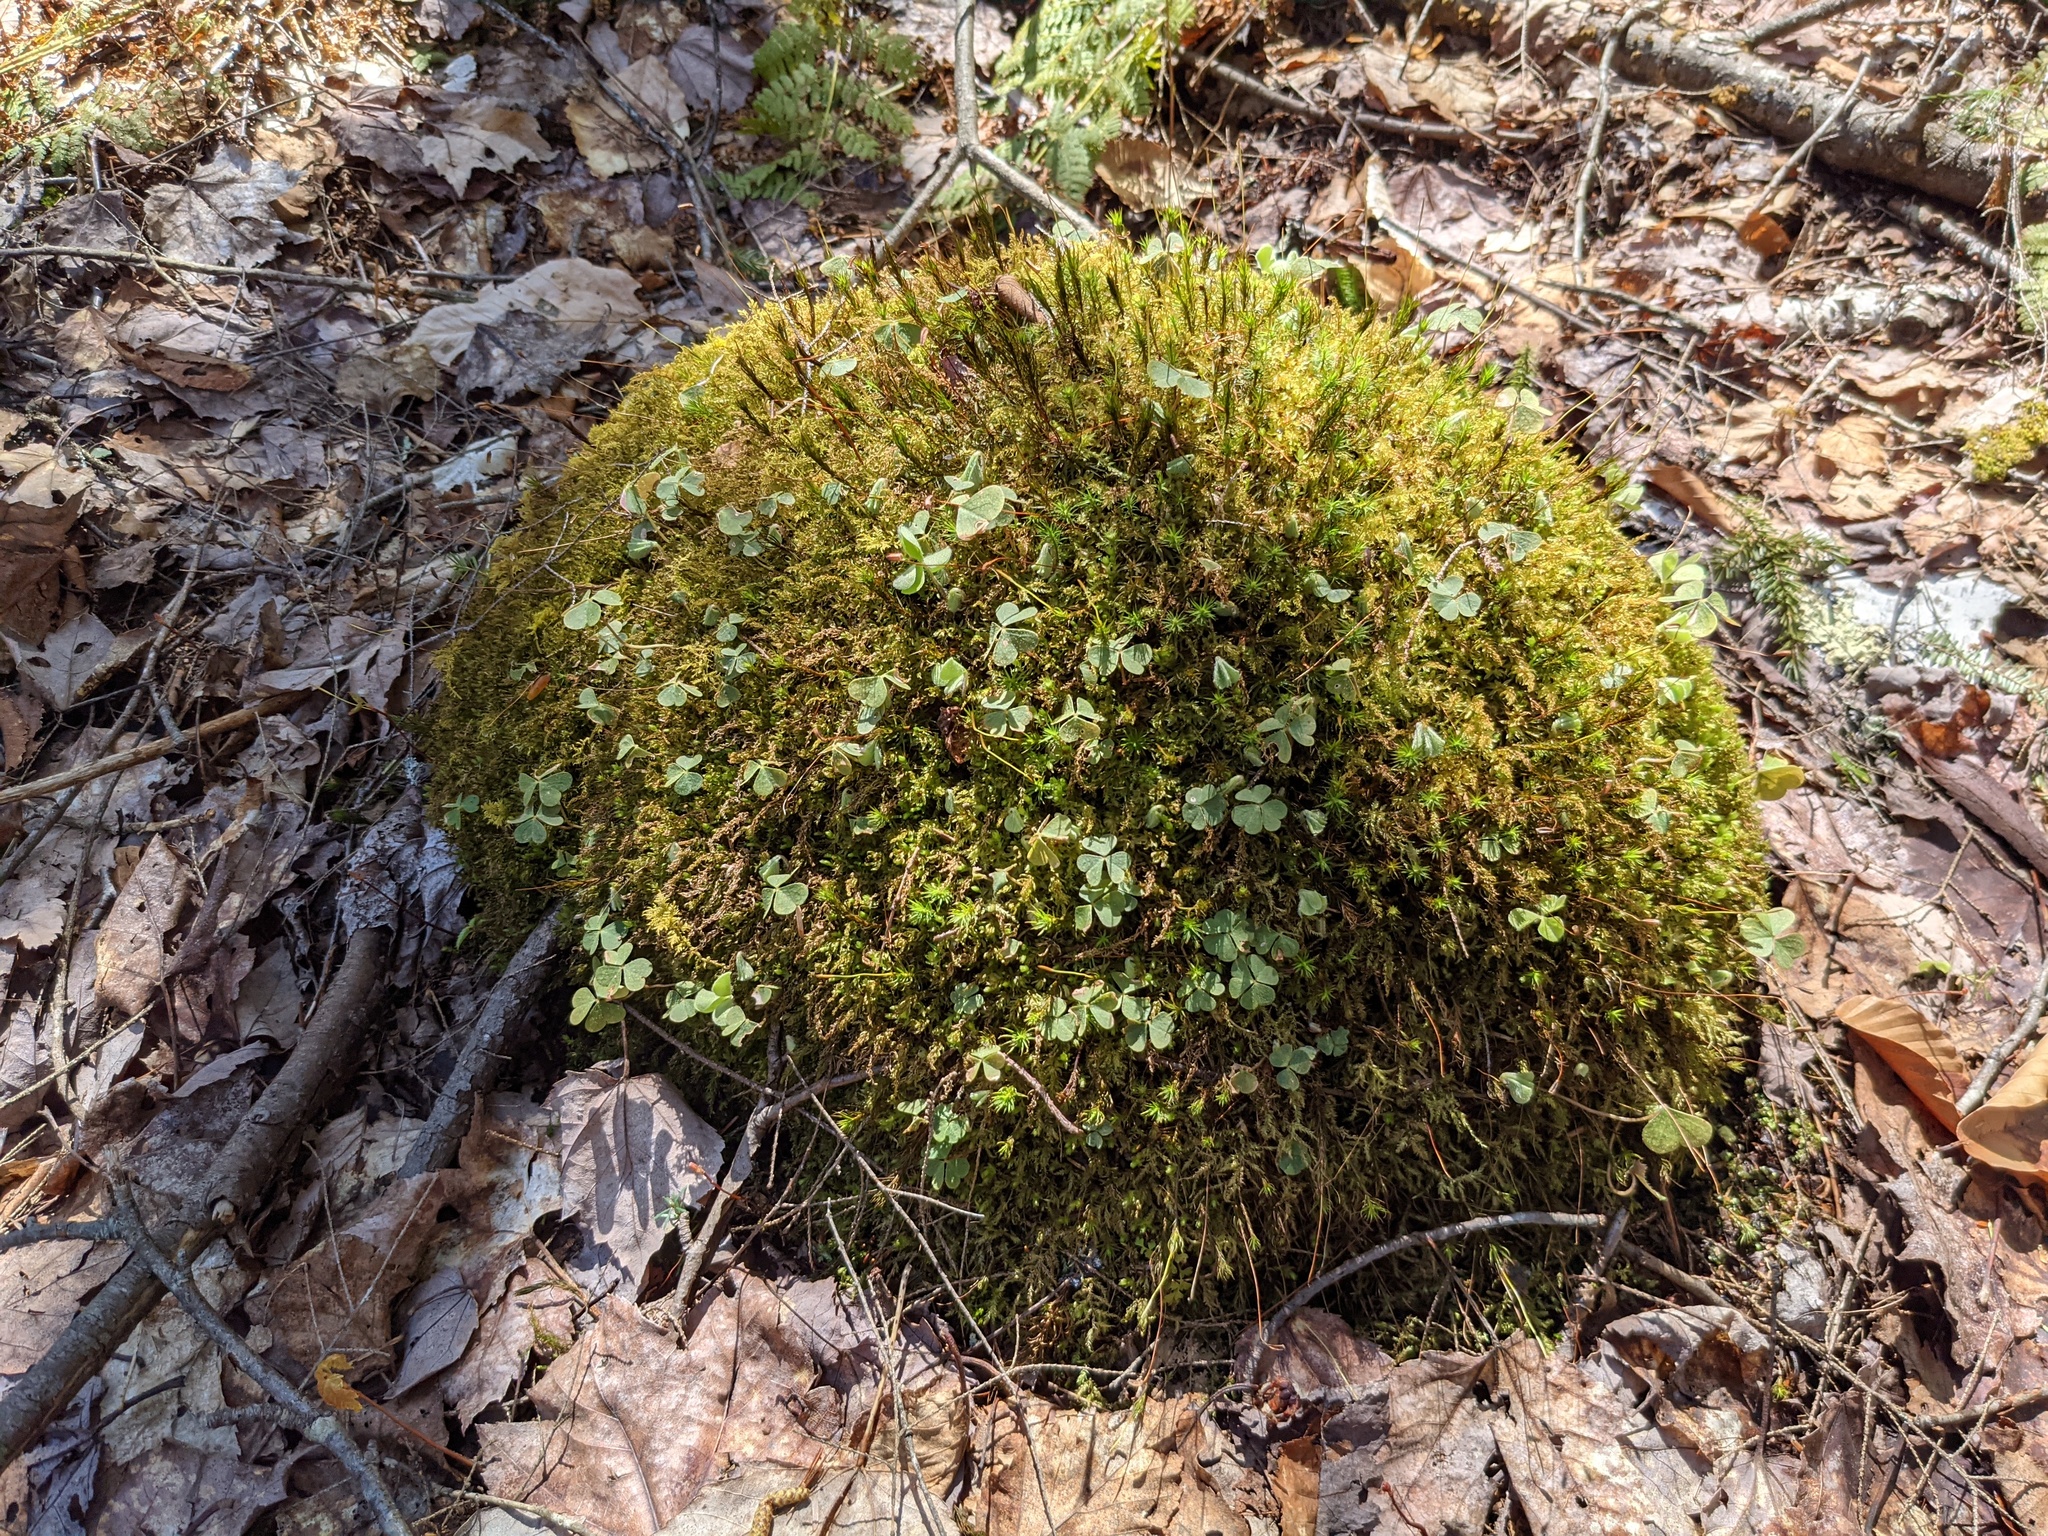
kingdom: Plantae
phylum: Tracheophyta
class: Magnoliopsida
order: Oxalidales
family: Oxalidaceae
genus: Oxalis
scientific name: Oxalis montana
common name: American wood-sorrel
